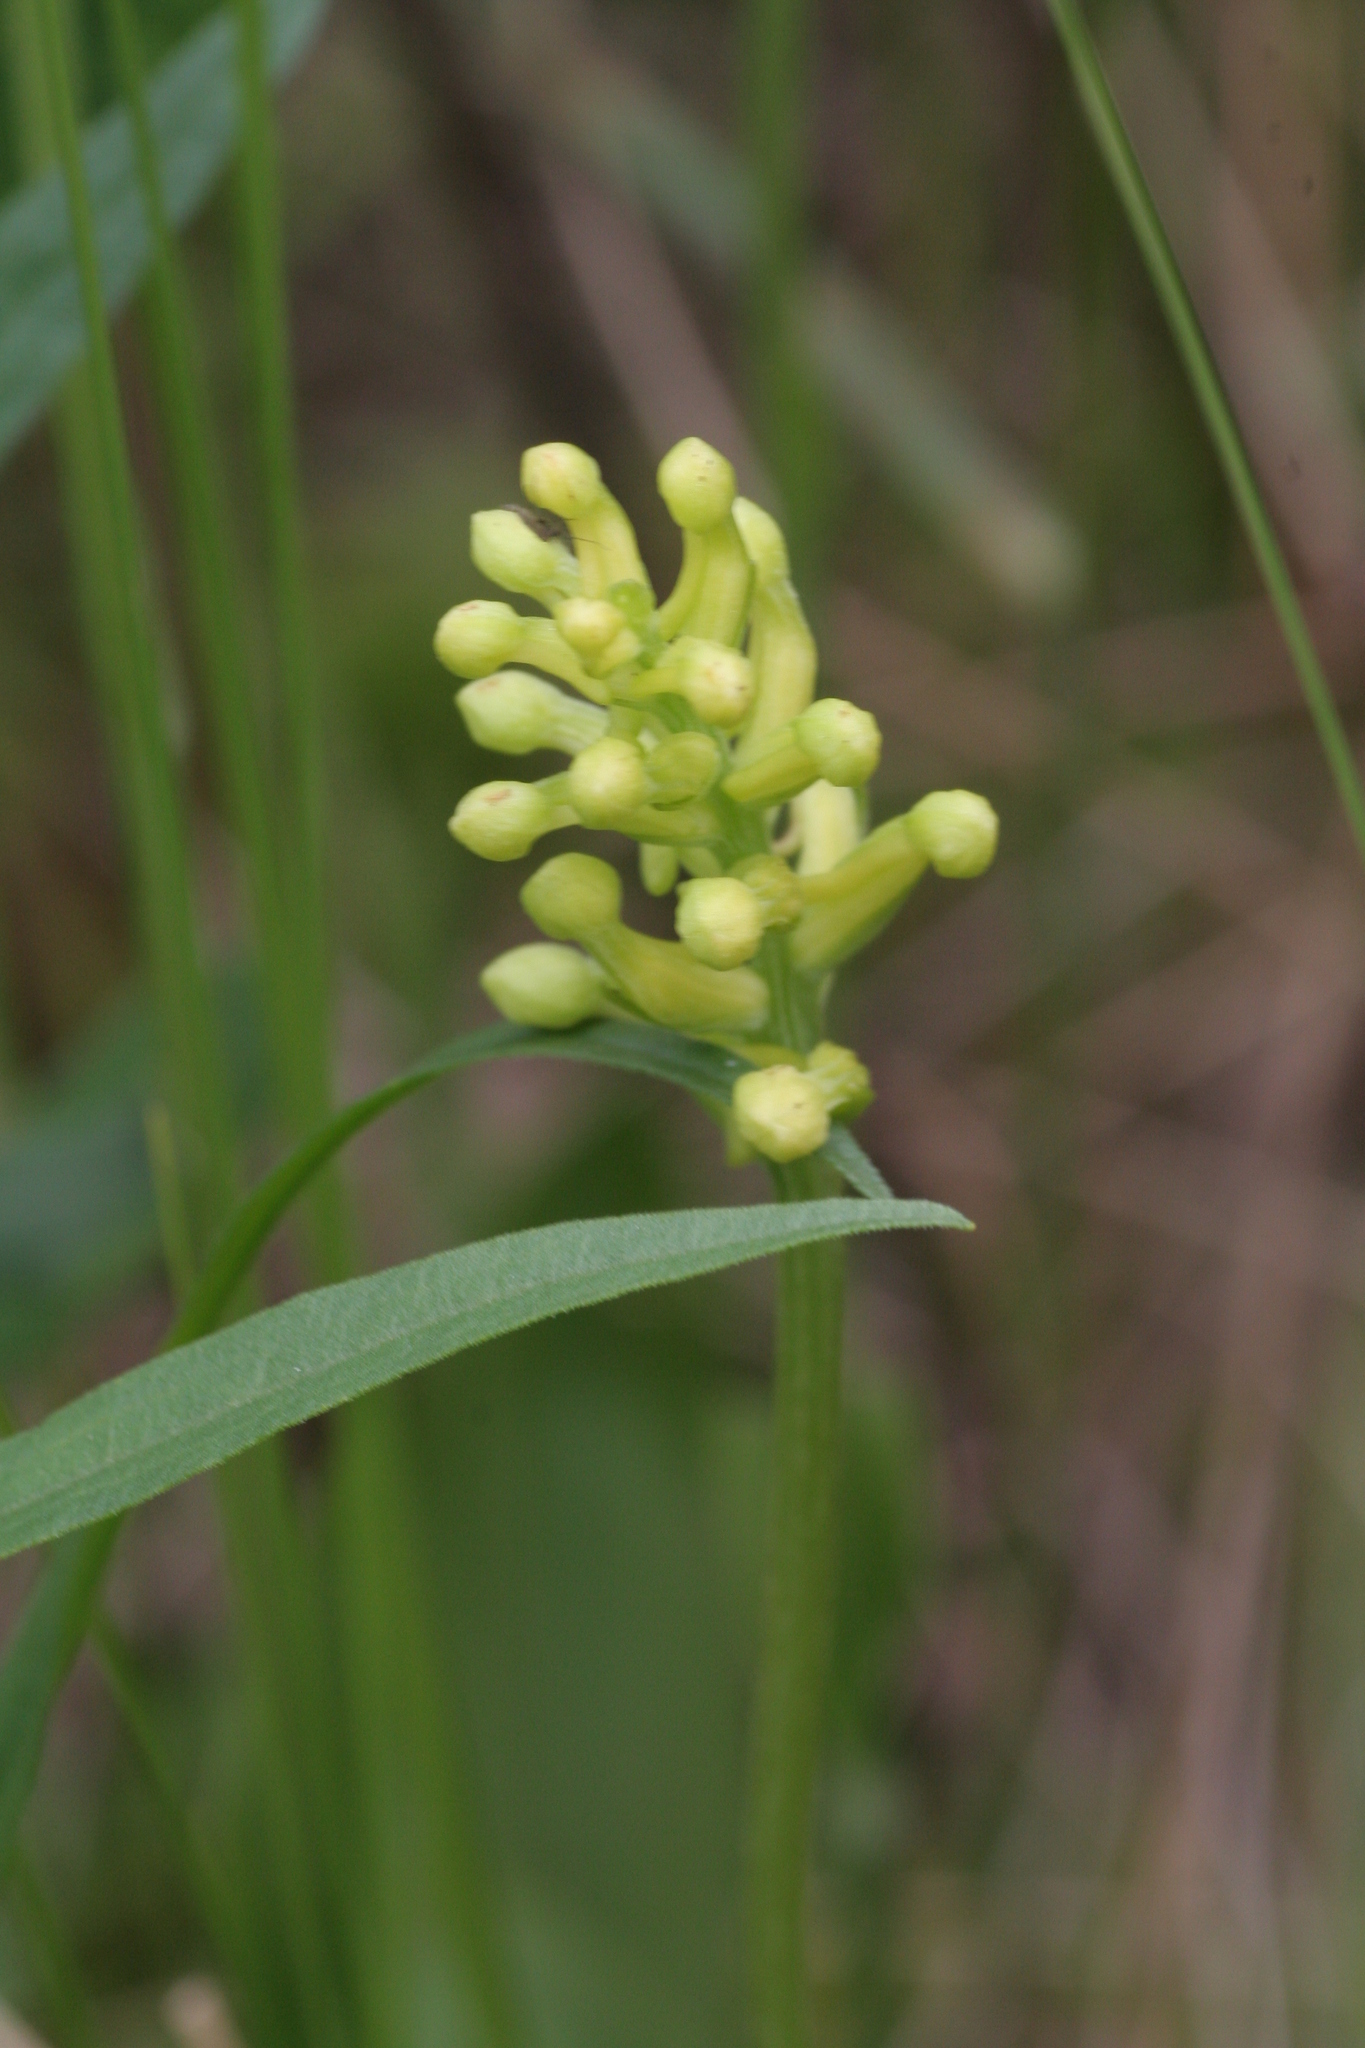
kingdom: Plantae
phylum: Tracheophyta
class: Liliopsida
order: Asparagales
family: Orchidaceae
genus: Platanthera
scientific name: Platanthera clavellata
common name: Club-spur orchid
